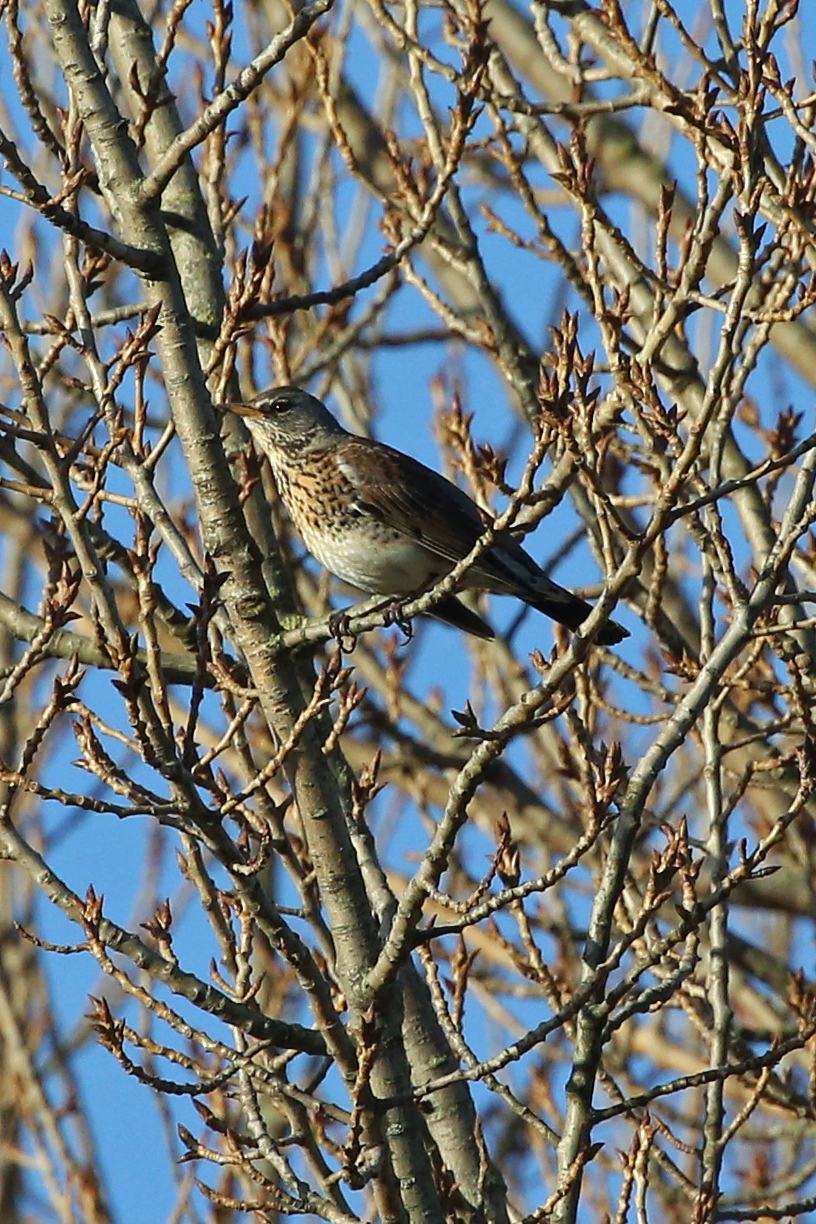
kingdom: Animalia
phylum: Chordata
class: Aves
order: Passeriformes
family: Turdidae
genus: Turdus
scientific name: Turdus pilaris
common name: Fieldfare
